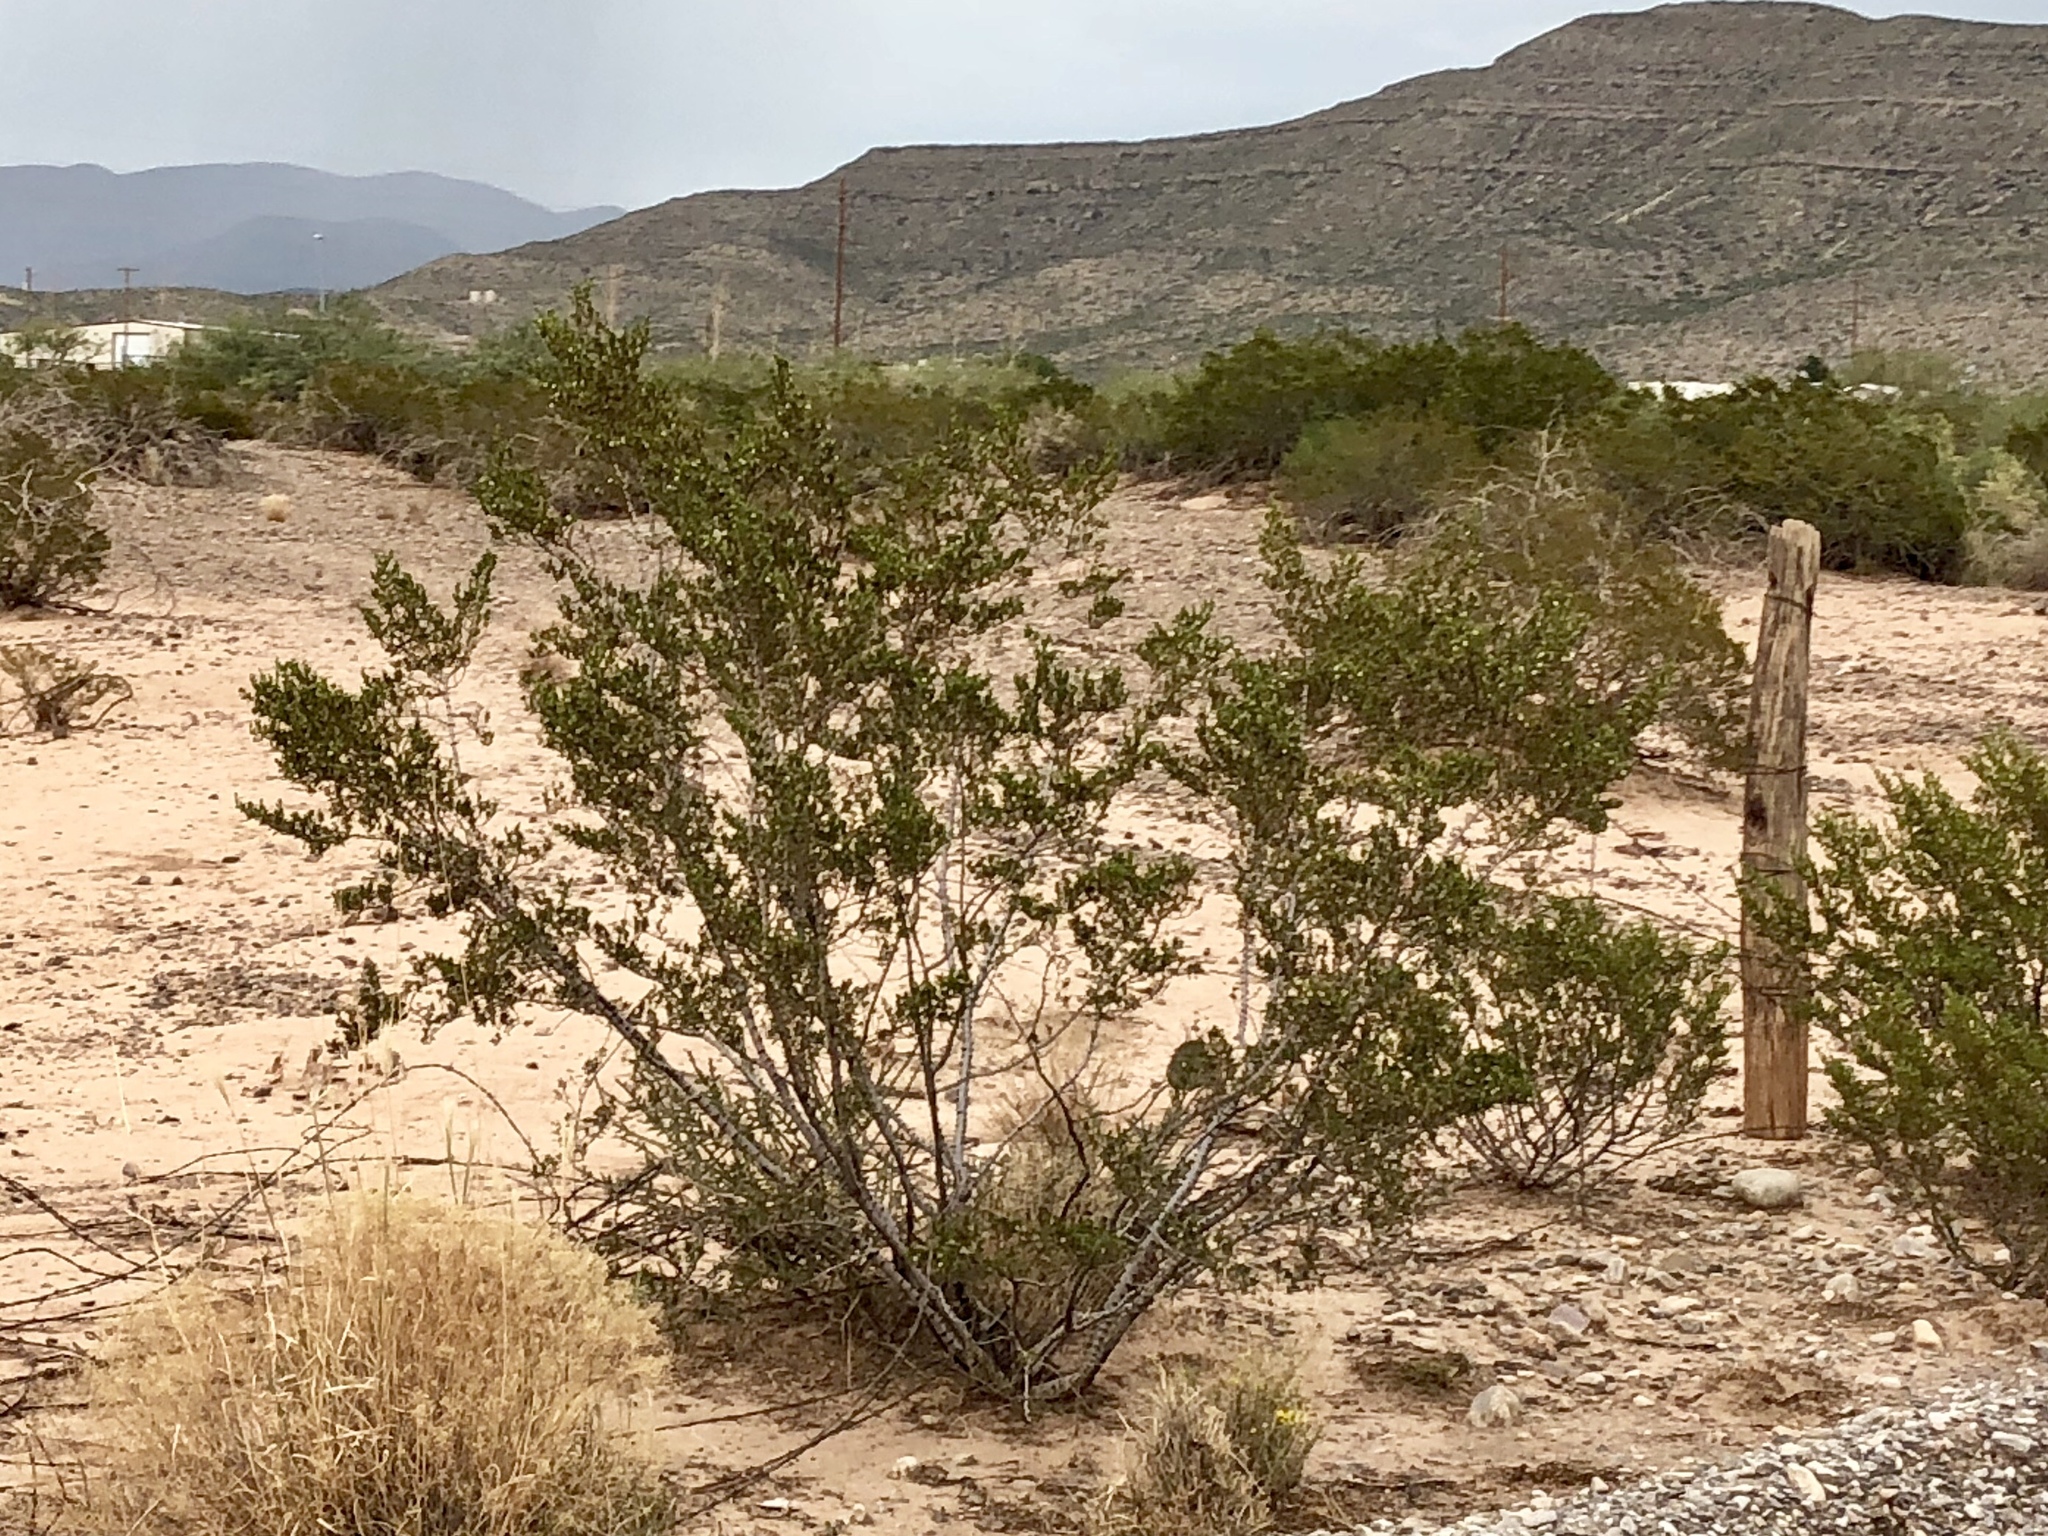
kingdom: Plantae
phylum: Tracheophyta
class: Magnoliopsida
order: Zygophyllales
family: Zygophyllaceae
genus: Larrea
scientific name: Larrea tridentata
